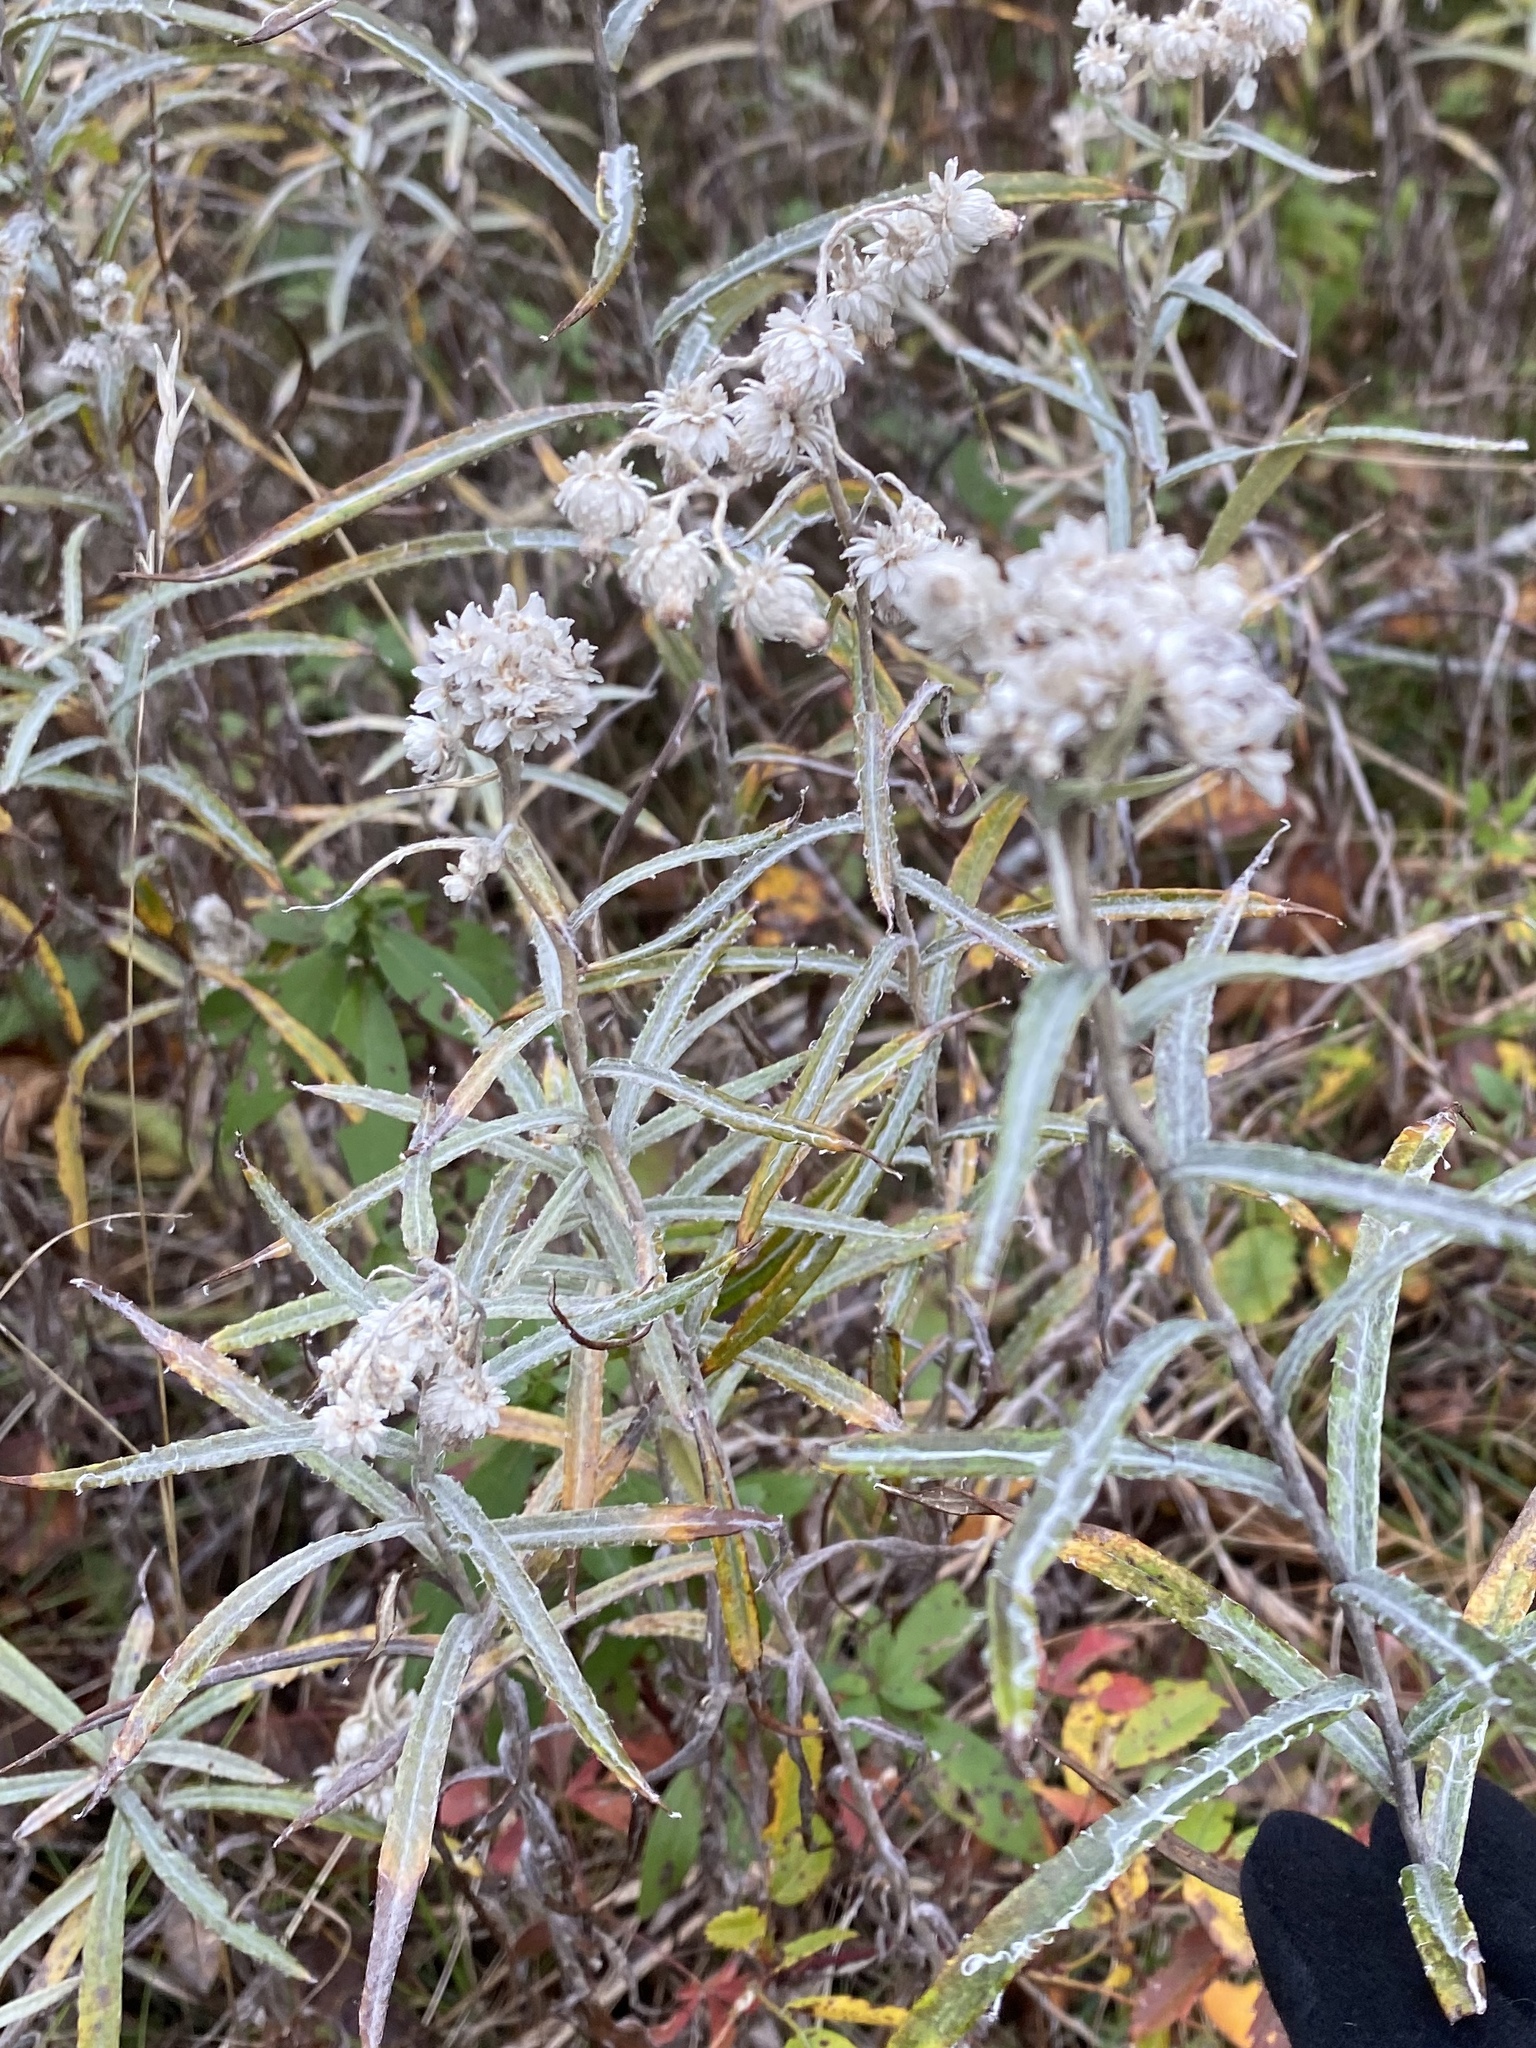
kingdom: Plantae
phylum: Tracheophyta
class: Magnoliopsida
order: Asterales
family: Asteraceae
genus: Anaphalis
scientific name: Anaphalis margaritacea
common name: Pearly everlasting
